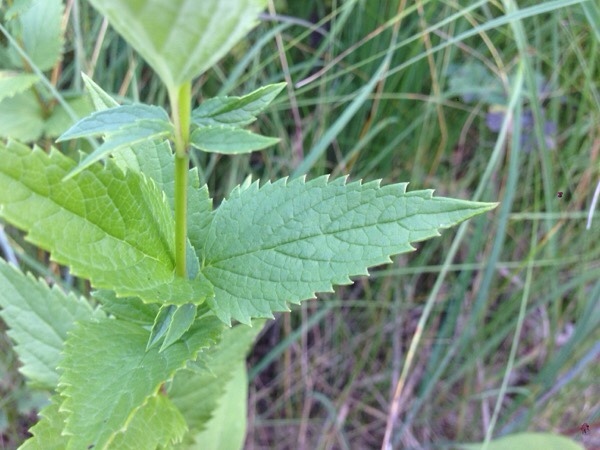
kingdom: Plantae
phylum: Tracheophyta
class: Magnoliopsida
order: Lamiales
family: Lamiaceae
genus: Agastache
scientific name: Agastache foeniculum
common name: Anise hyssop
